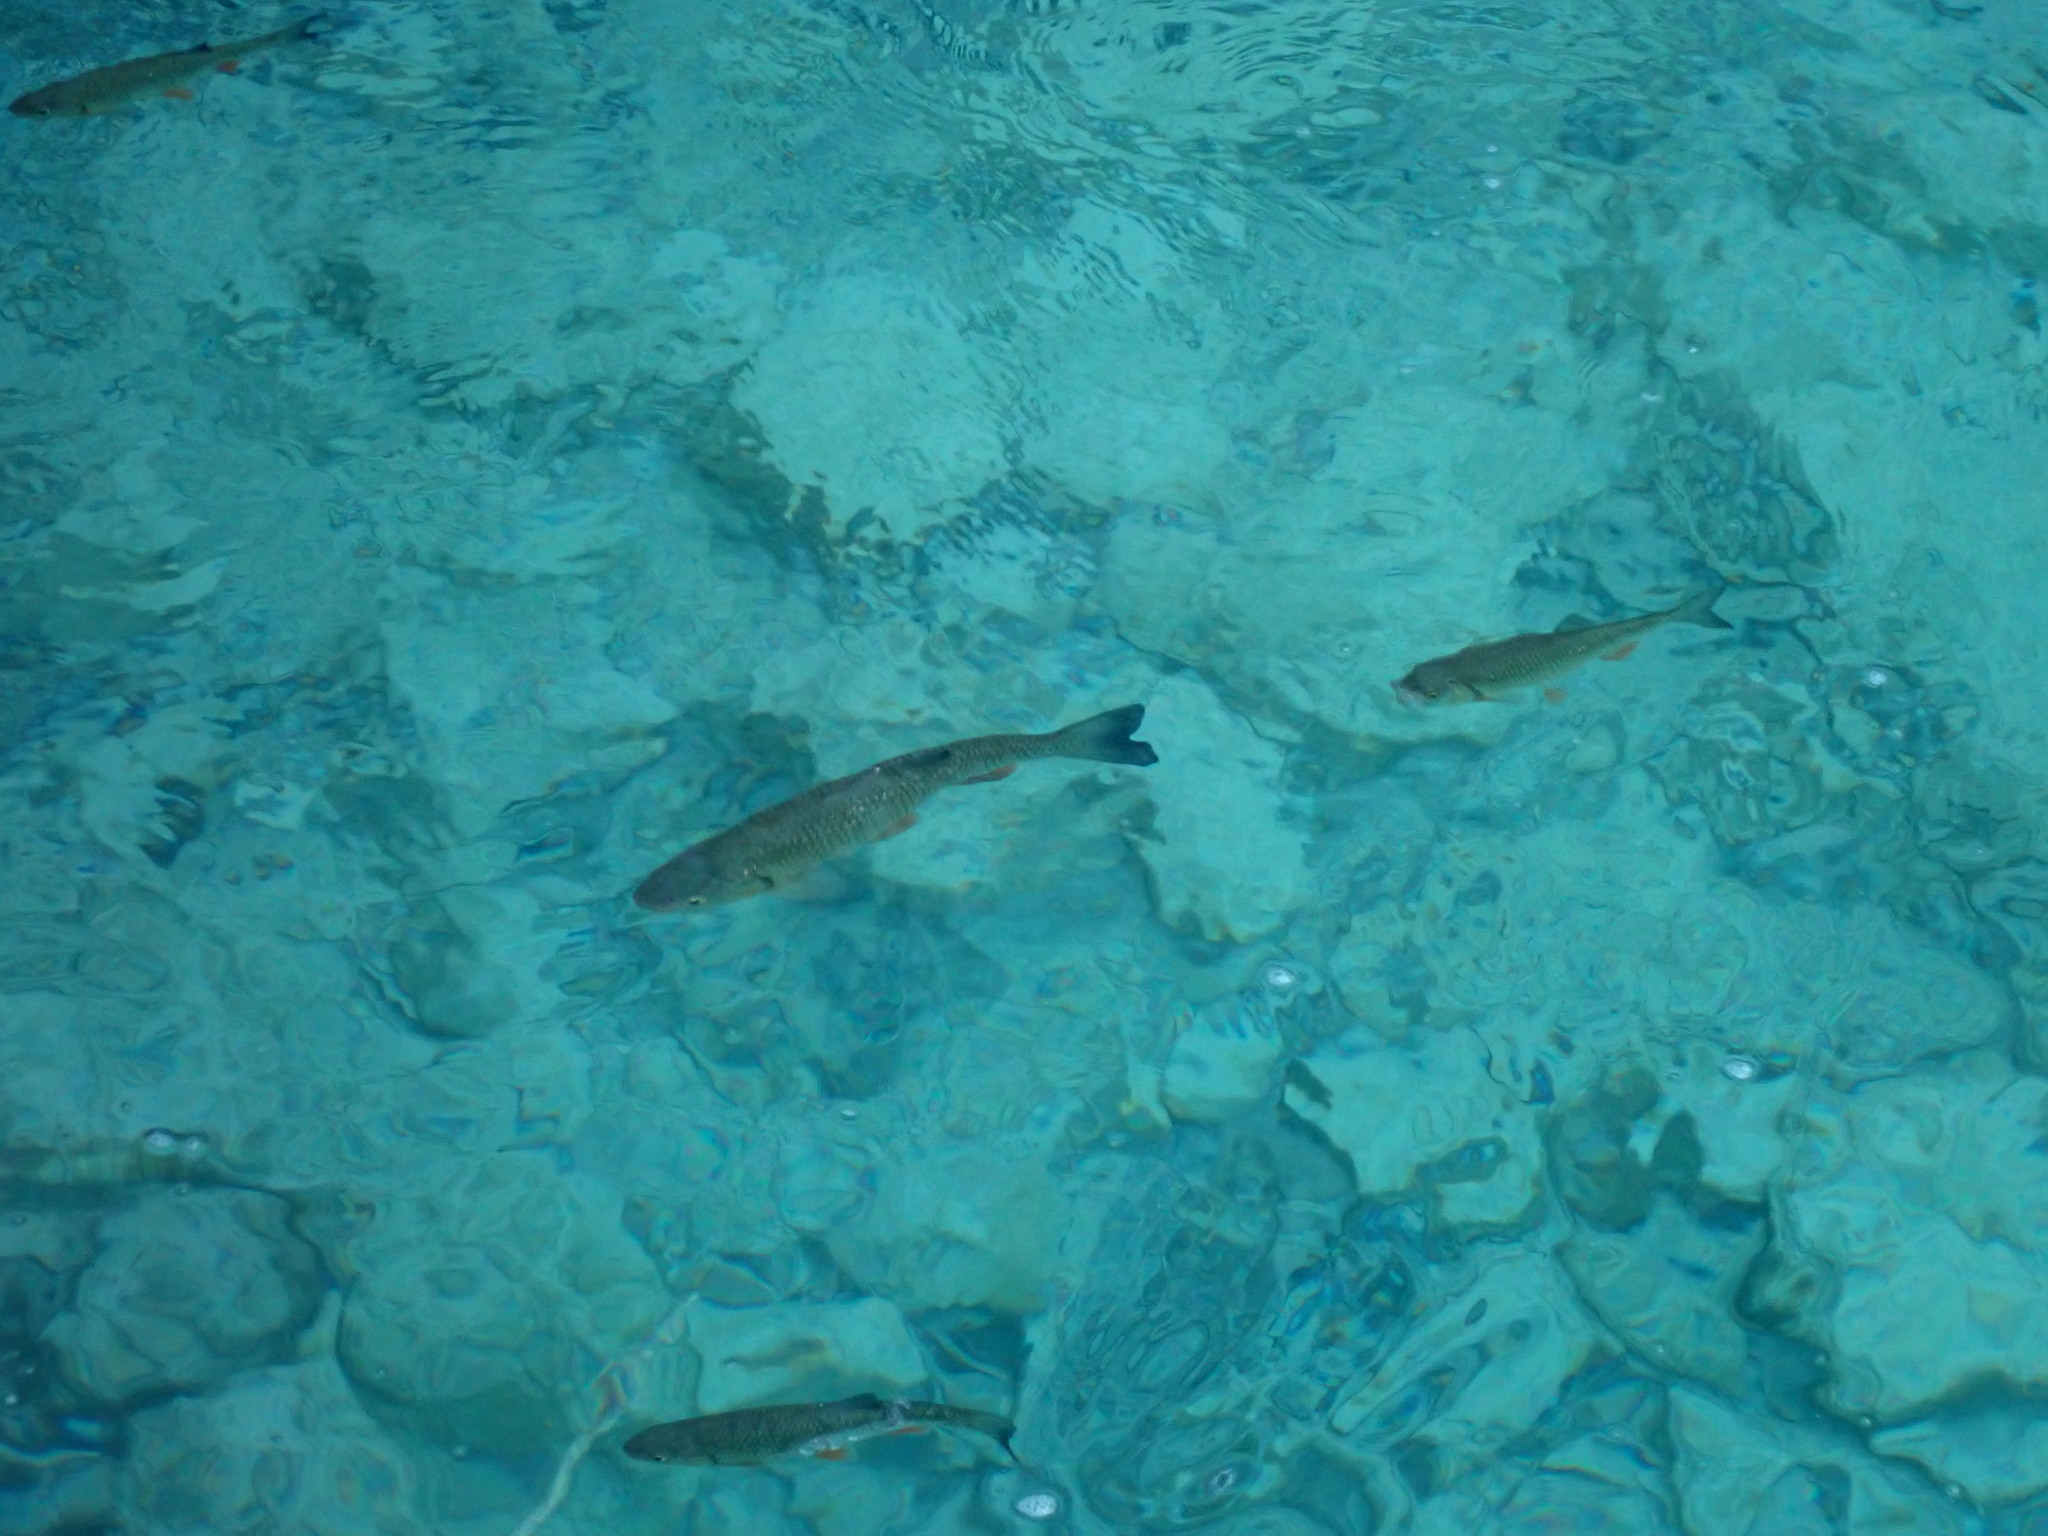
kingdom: Animalia
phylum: Chordata
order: Cypriniformes
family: Cyprinidae
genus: Squalius
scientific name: Squalius cephalus
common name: Chub
